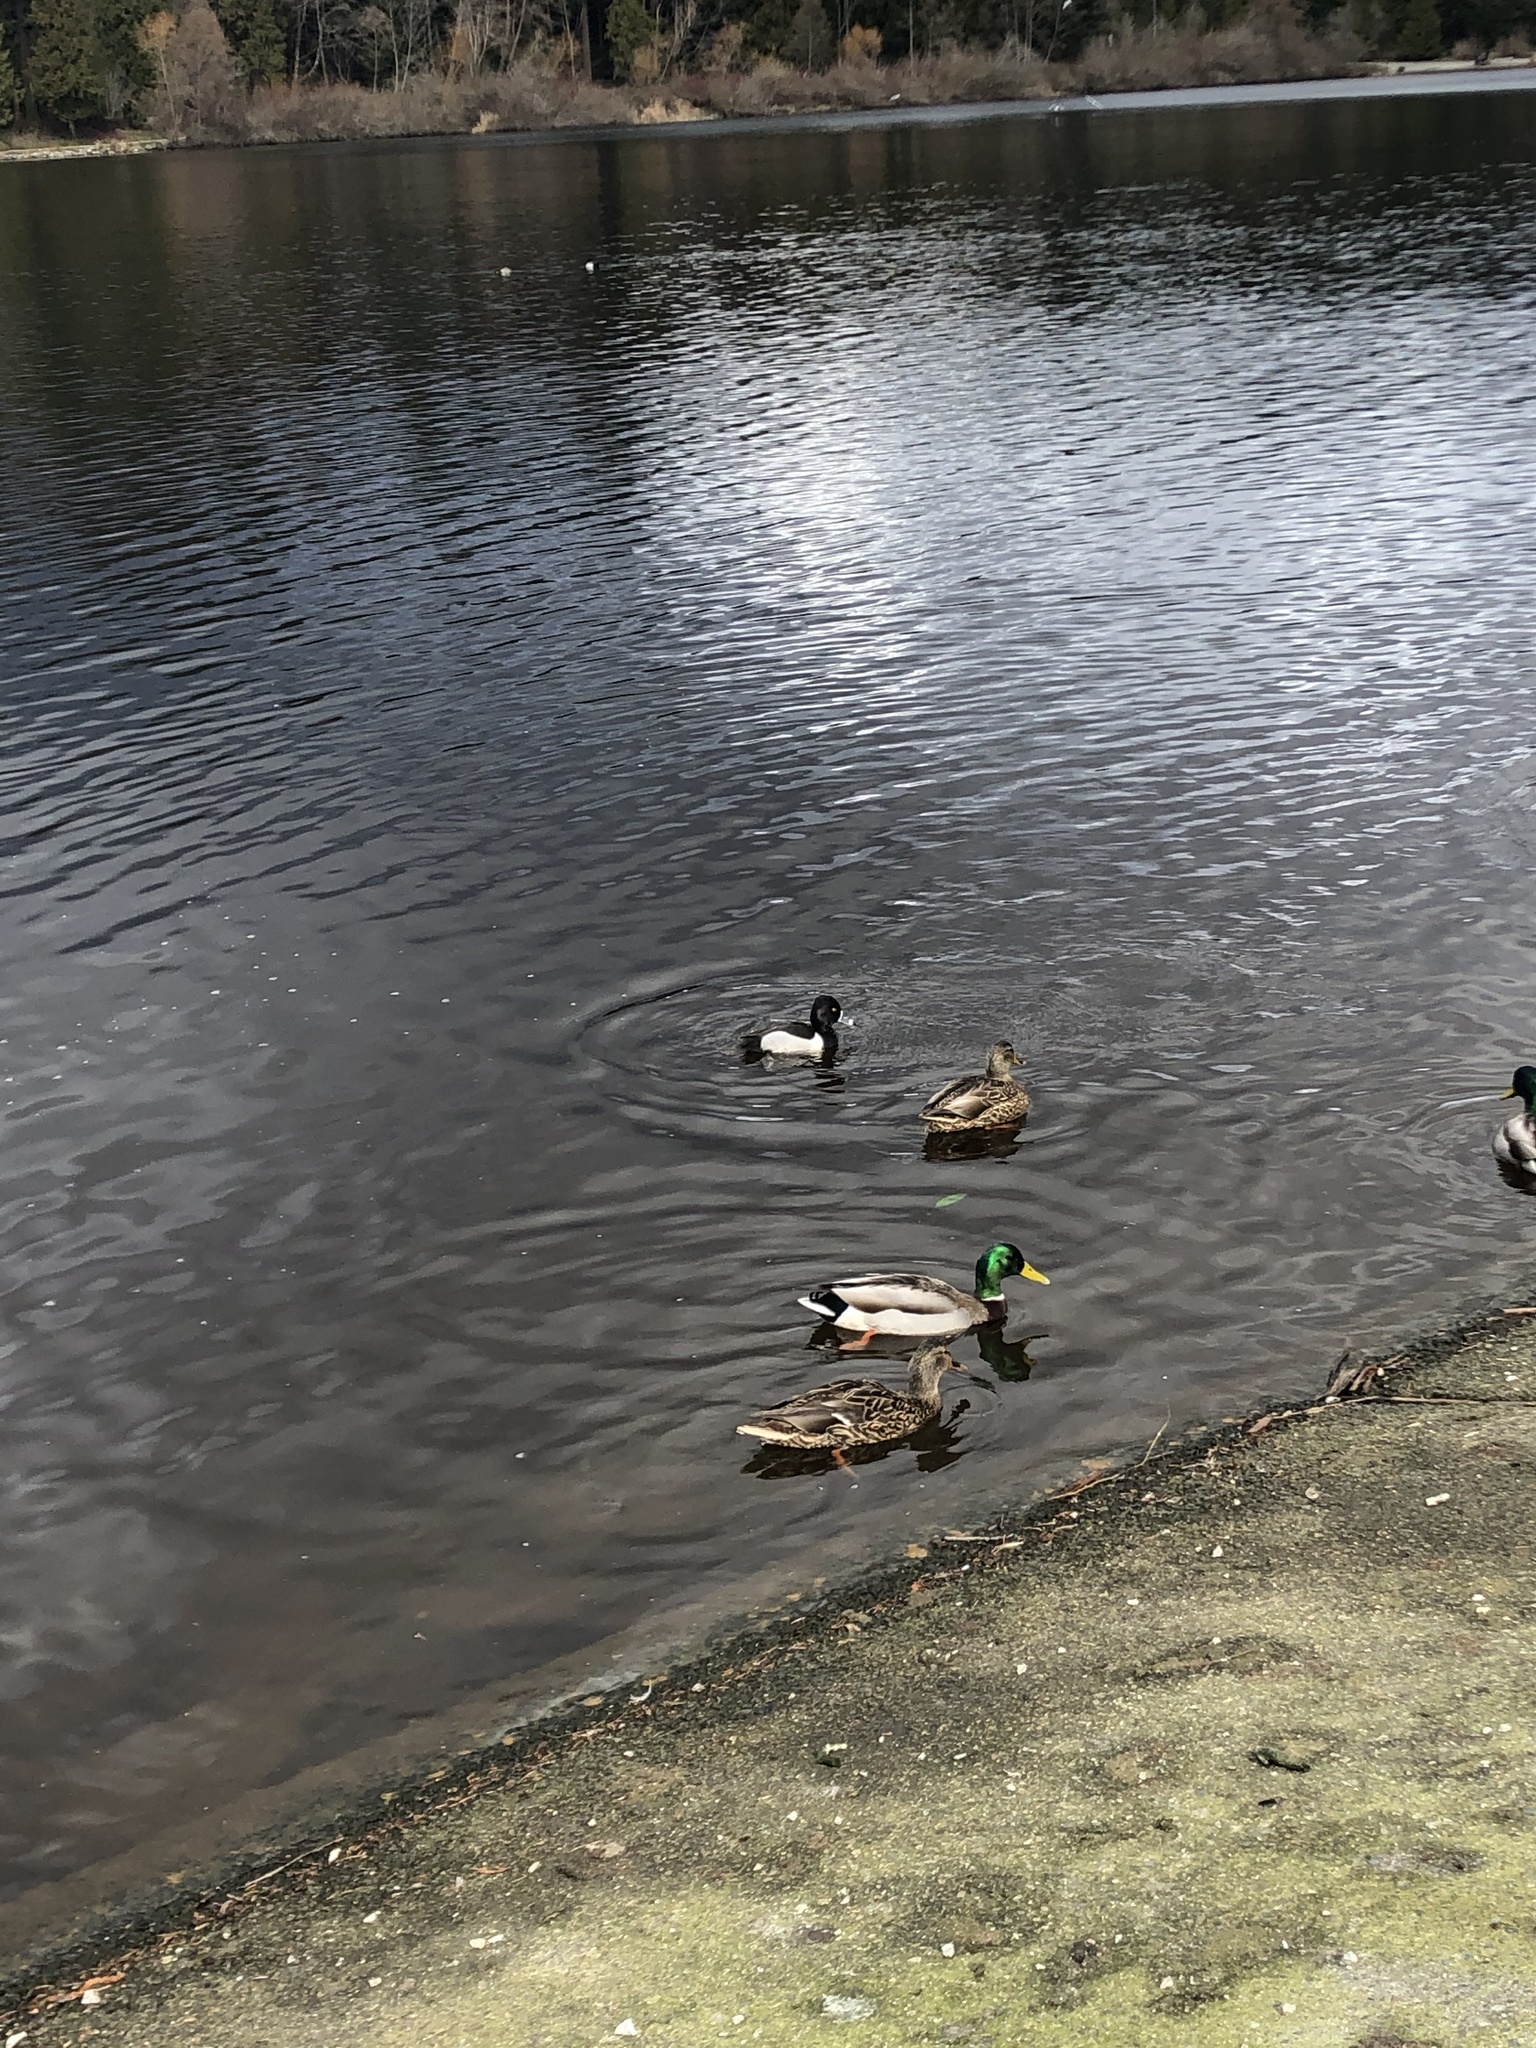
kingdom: Animalia
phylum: Chordata
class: Aves
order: Anseriformes
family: Anatidae
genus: Aythya
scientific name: Aythya collaris
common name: Ring-necked duck
